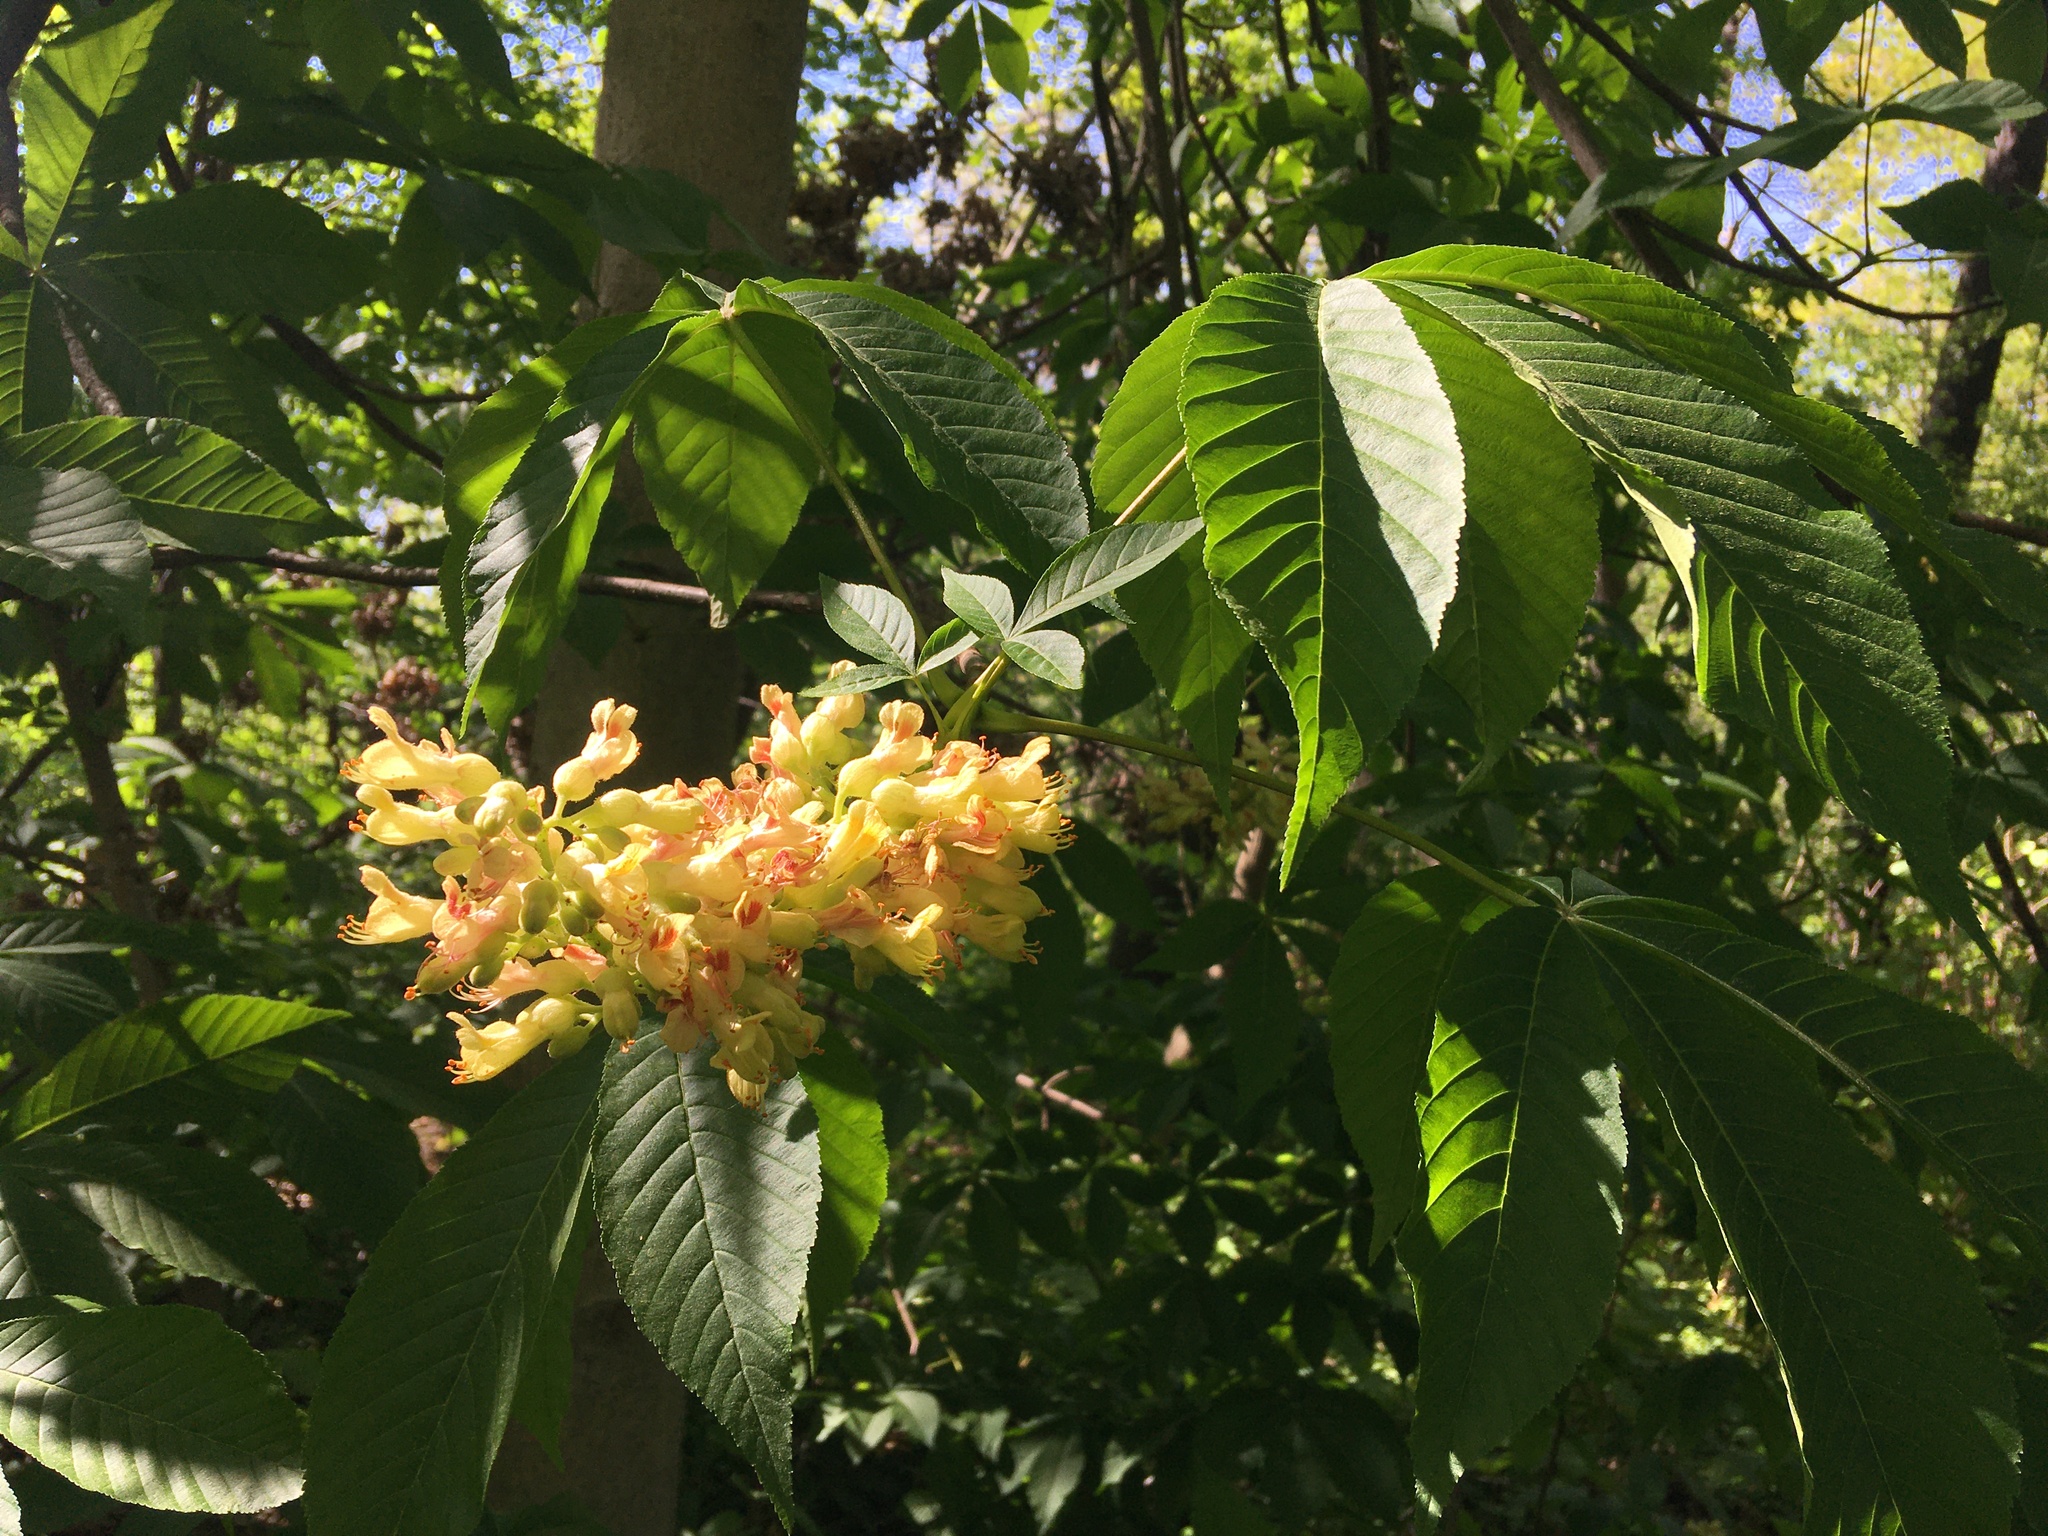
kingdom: Plantae
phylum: Tracheophyta
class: Magnoliopsida
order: Sapindales
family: Sapindaceae
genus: Aesculus
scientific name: Aesculus flava
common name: Yellow buckeye
